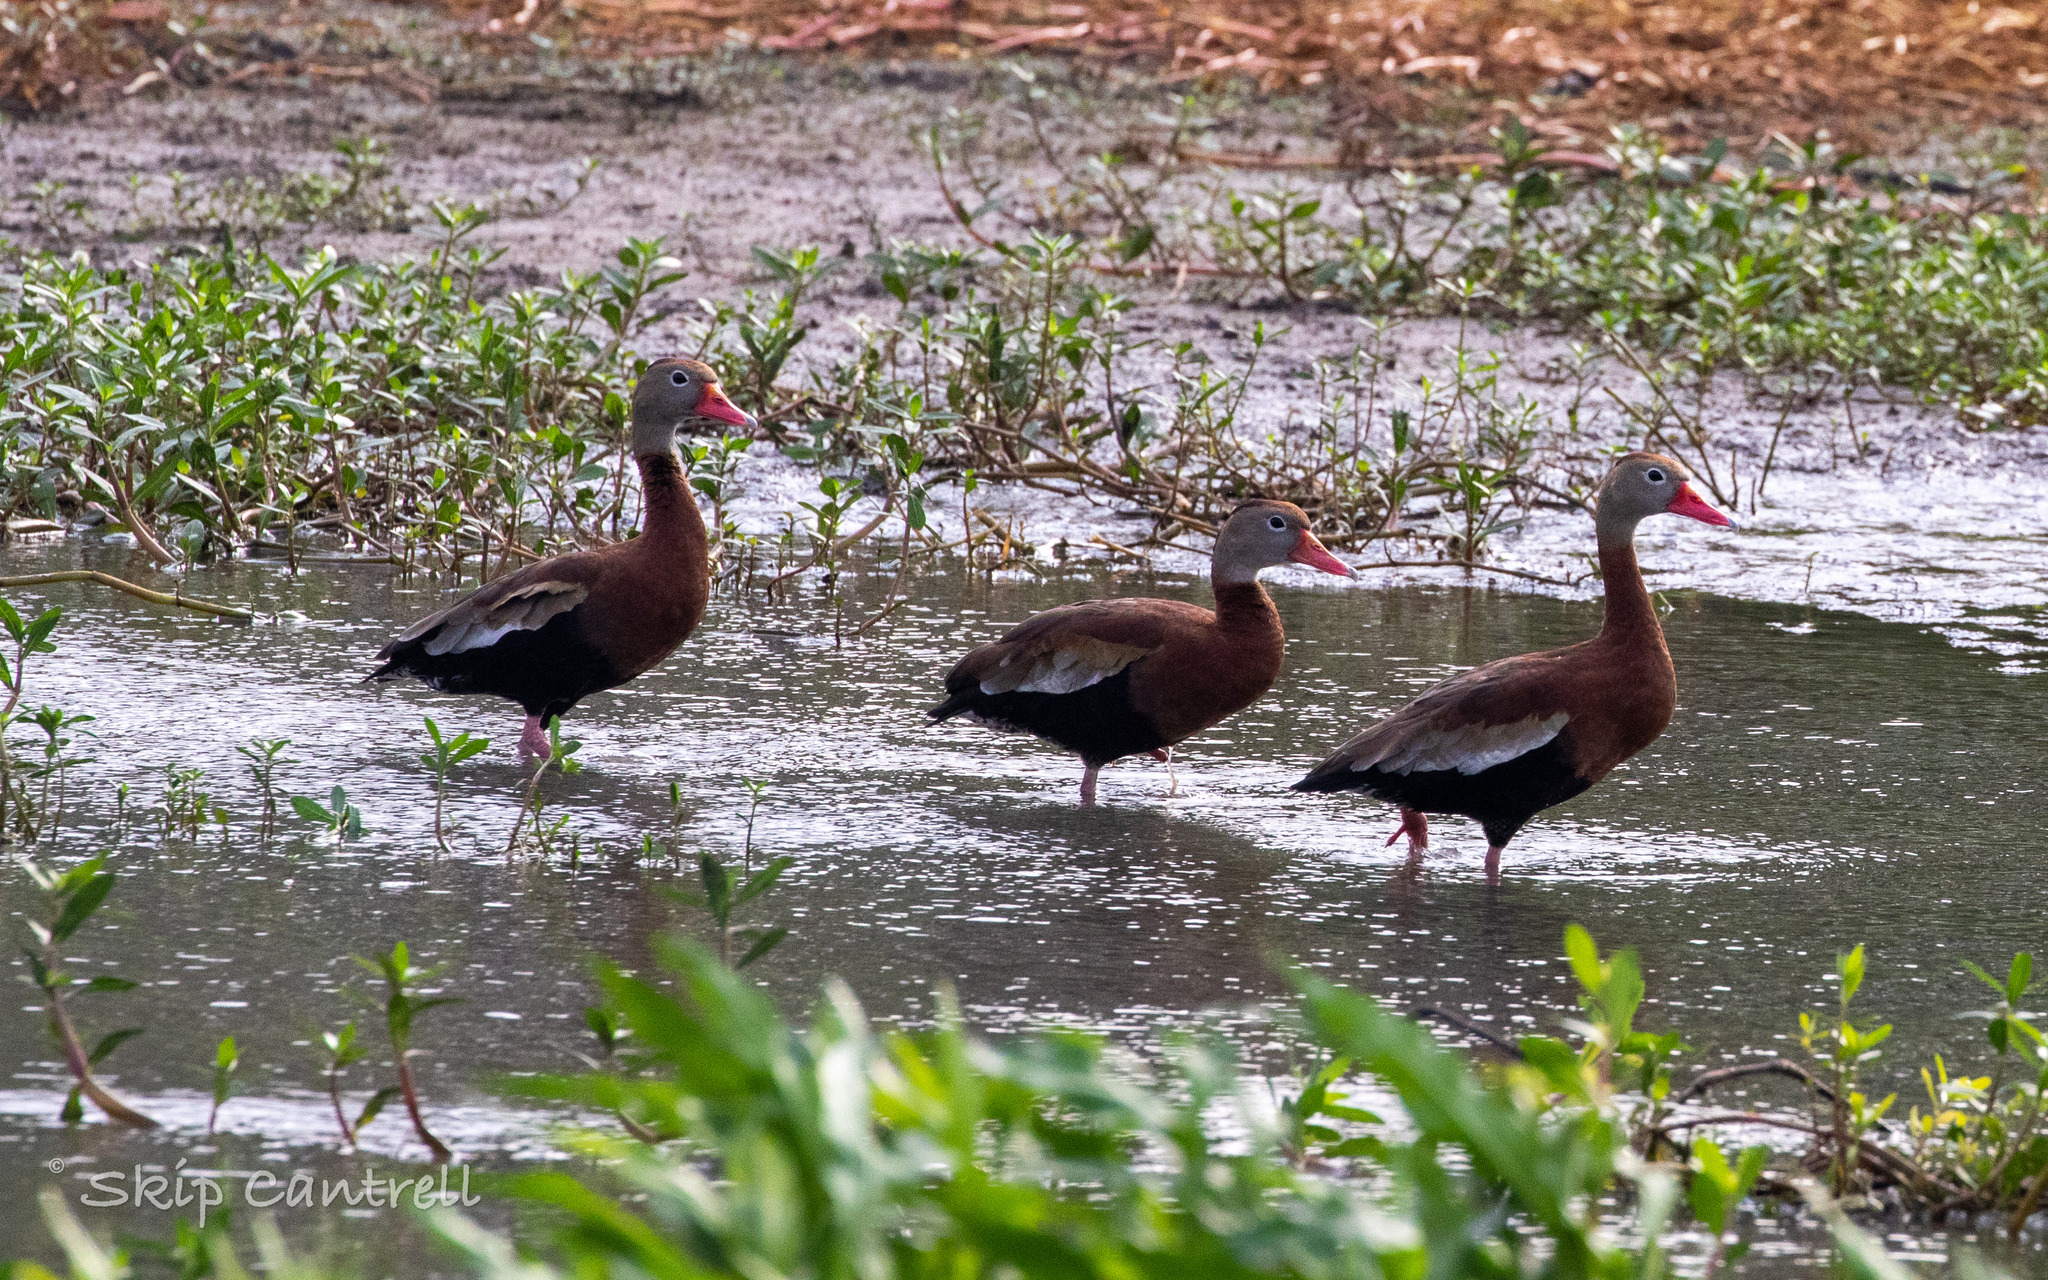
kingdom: Animalia
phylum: Chordata
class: Aves
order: Anseriformes
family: Anatidae
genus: Dendrocygna
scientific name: Dendrocygna autumnalis
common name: Black-bellied whistling duck
